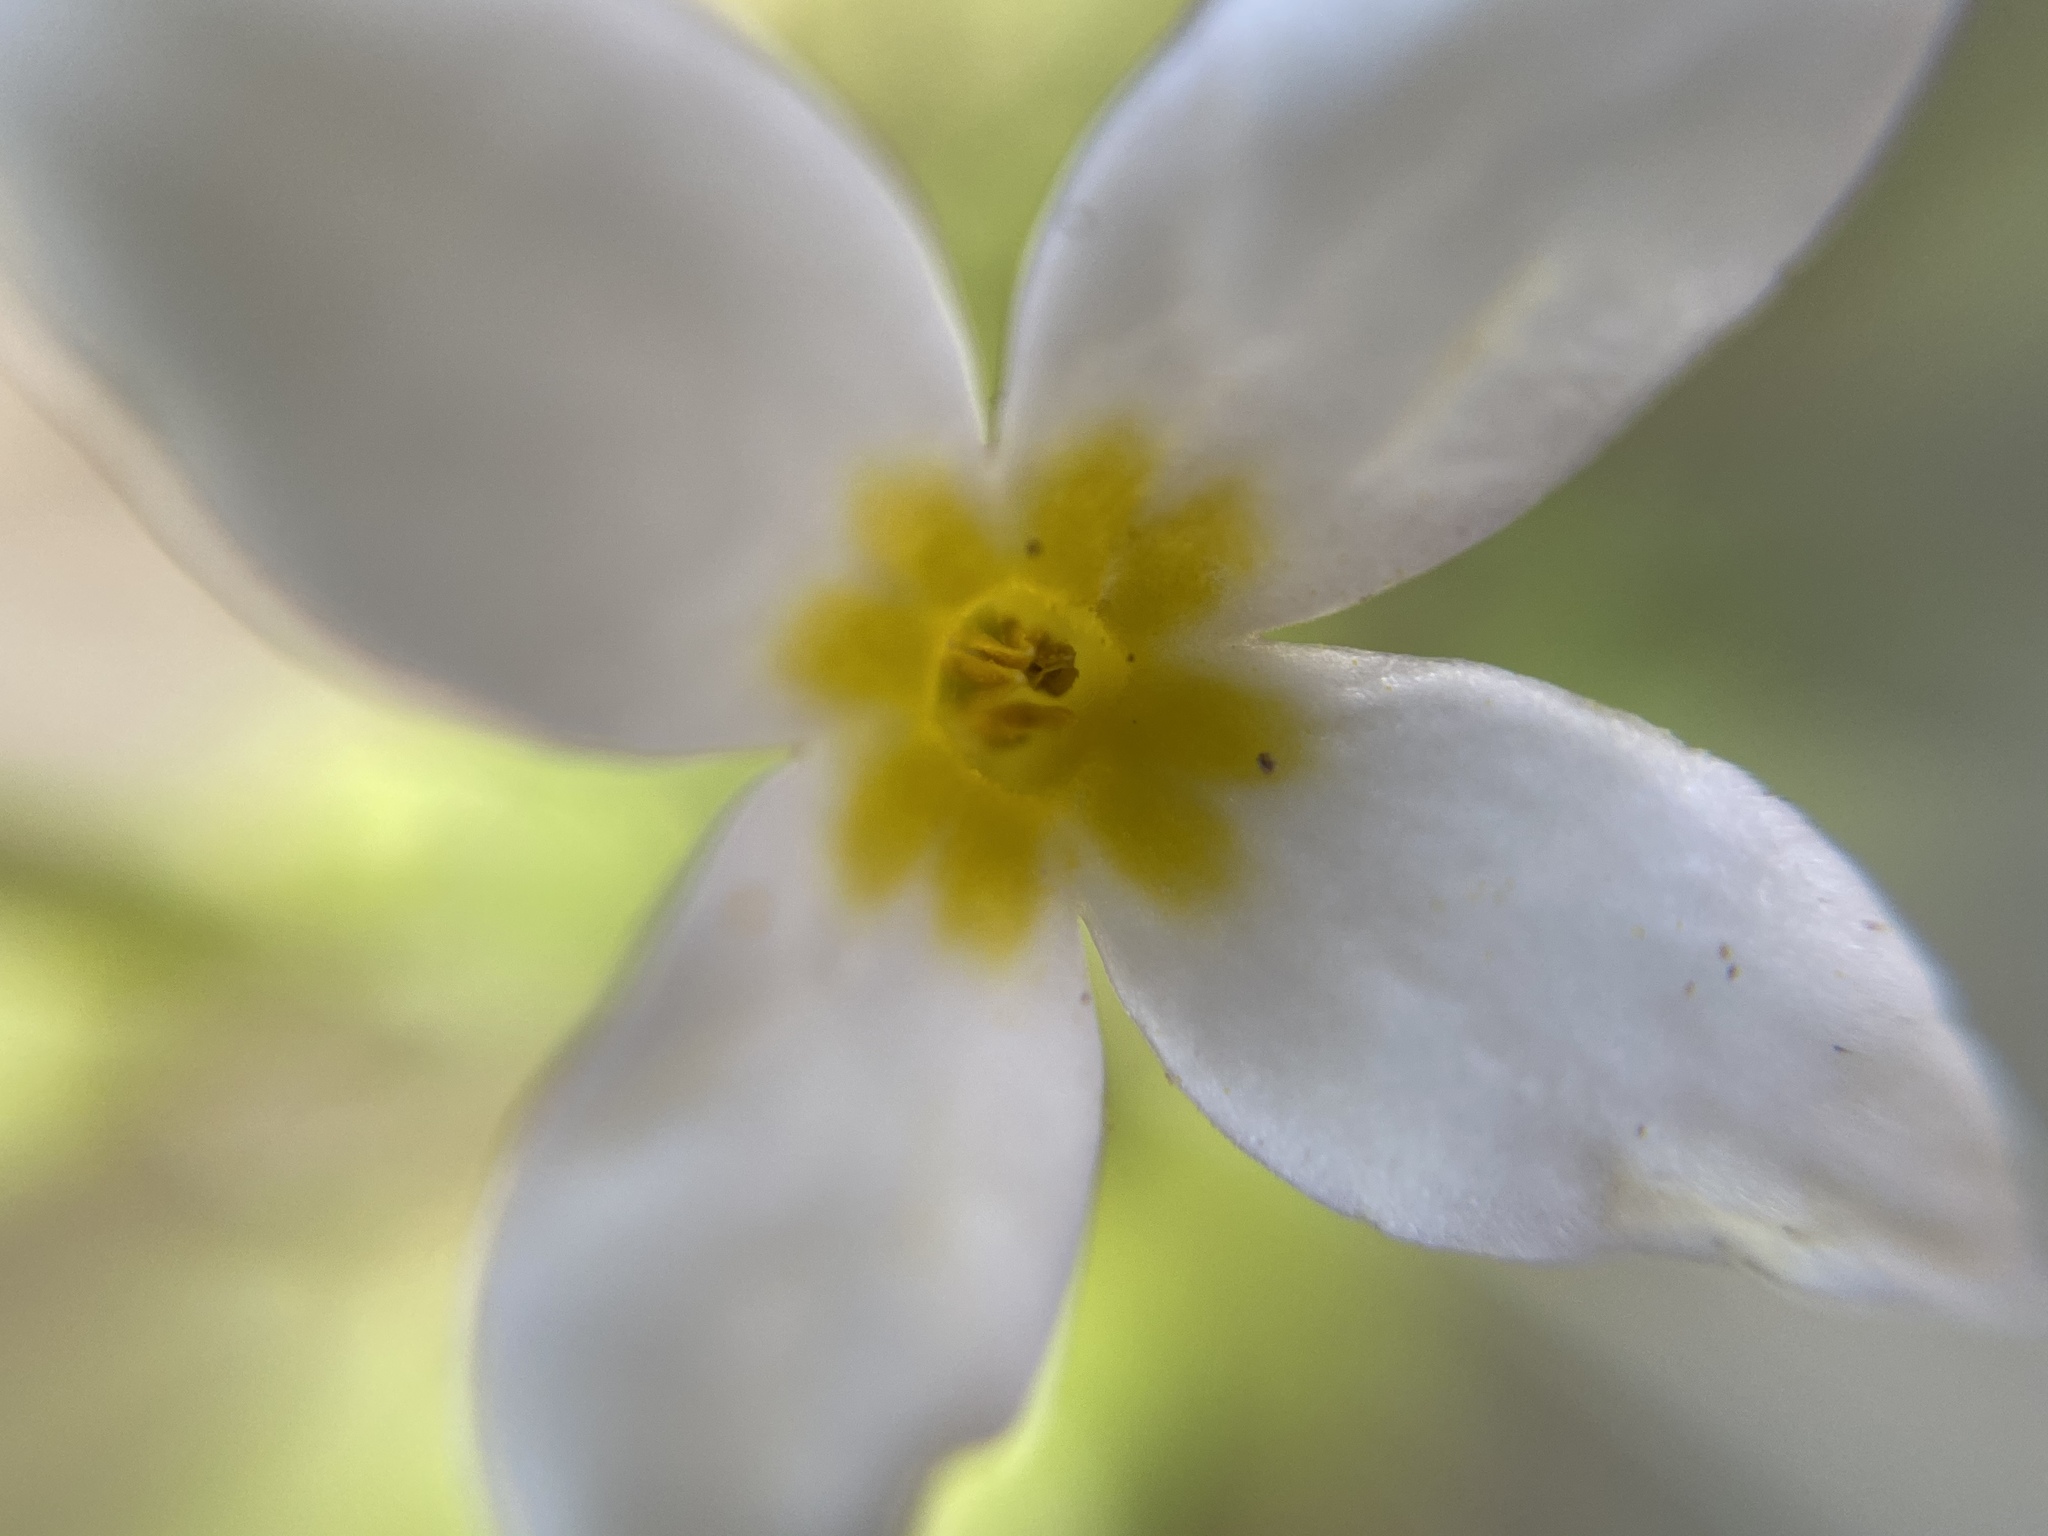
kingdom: Plantae
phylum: Tracheophyta
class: Magnoliopsida
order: Gentianales
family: Rubiaceae
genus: Houstonia
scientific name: Houstonia caerulea
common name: Bluets
